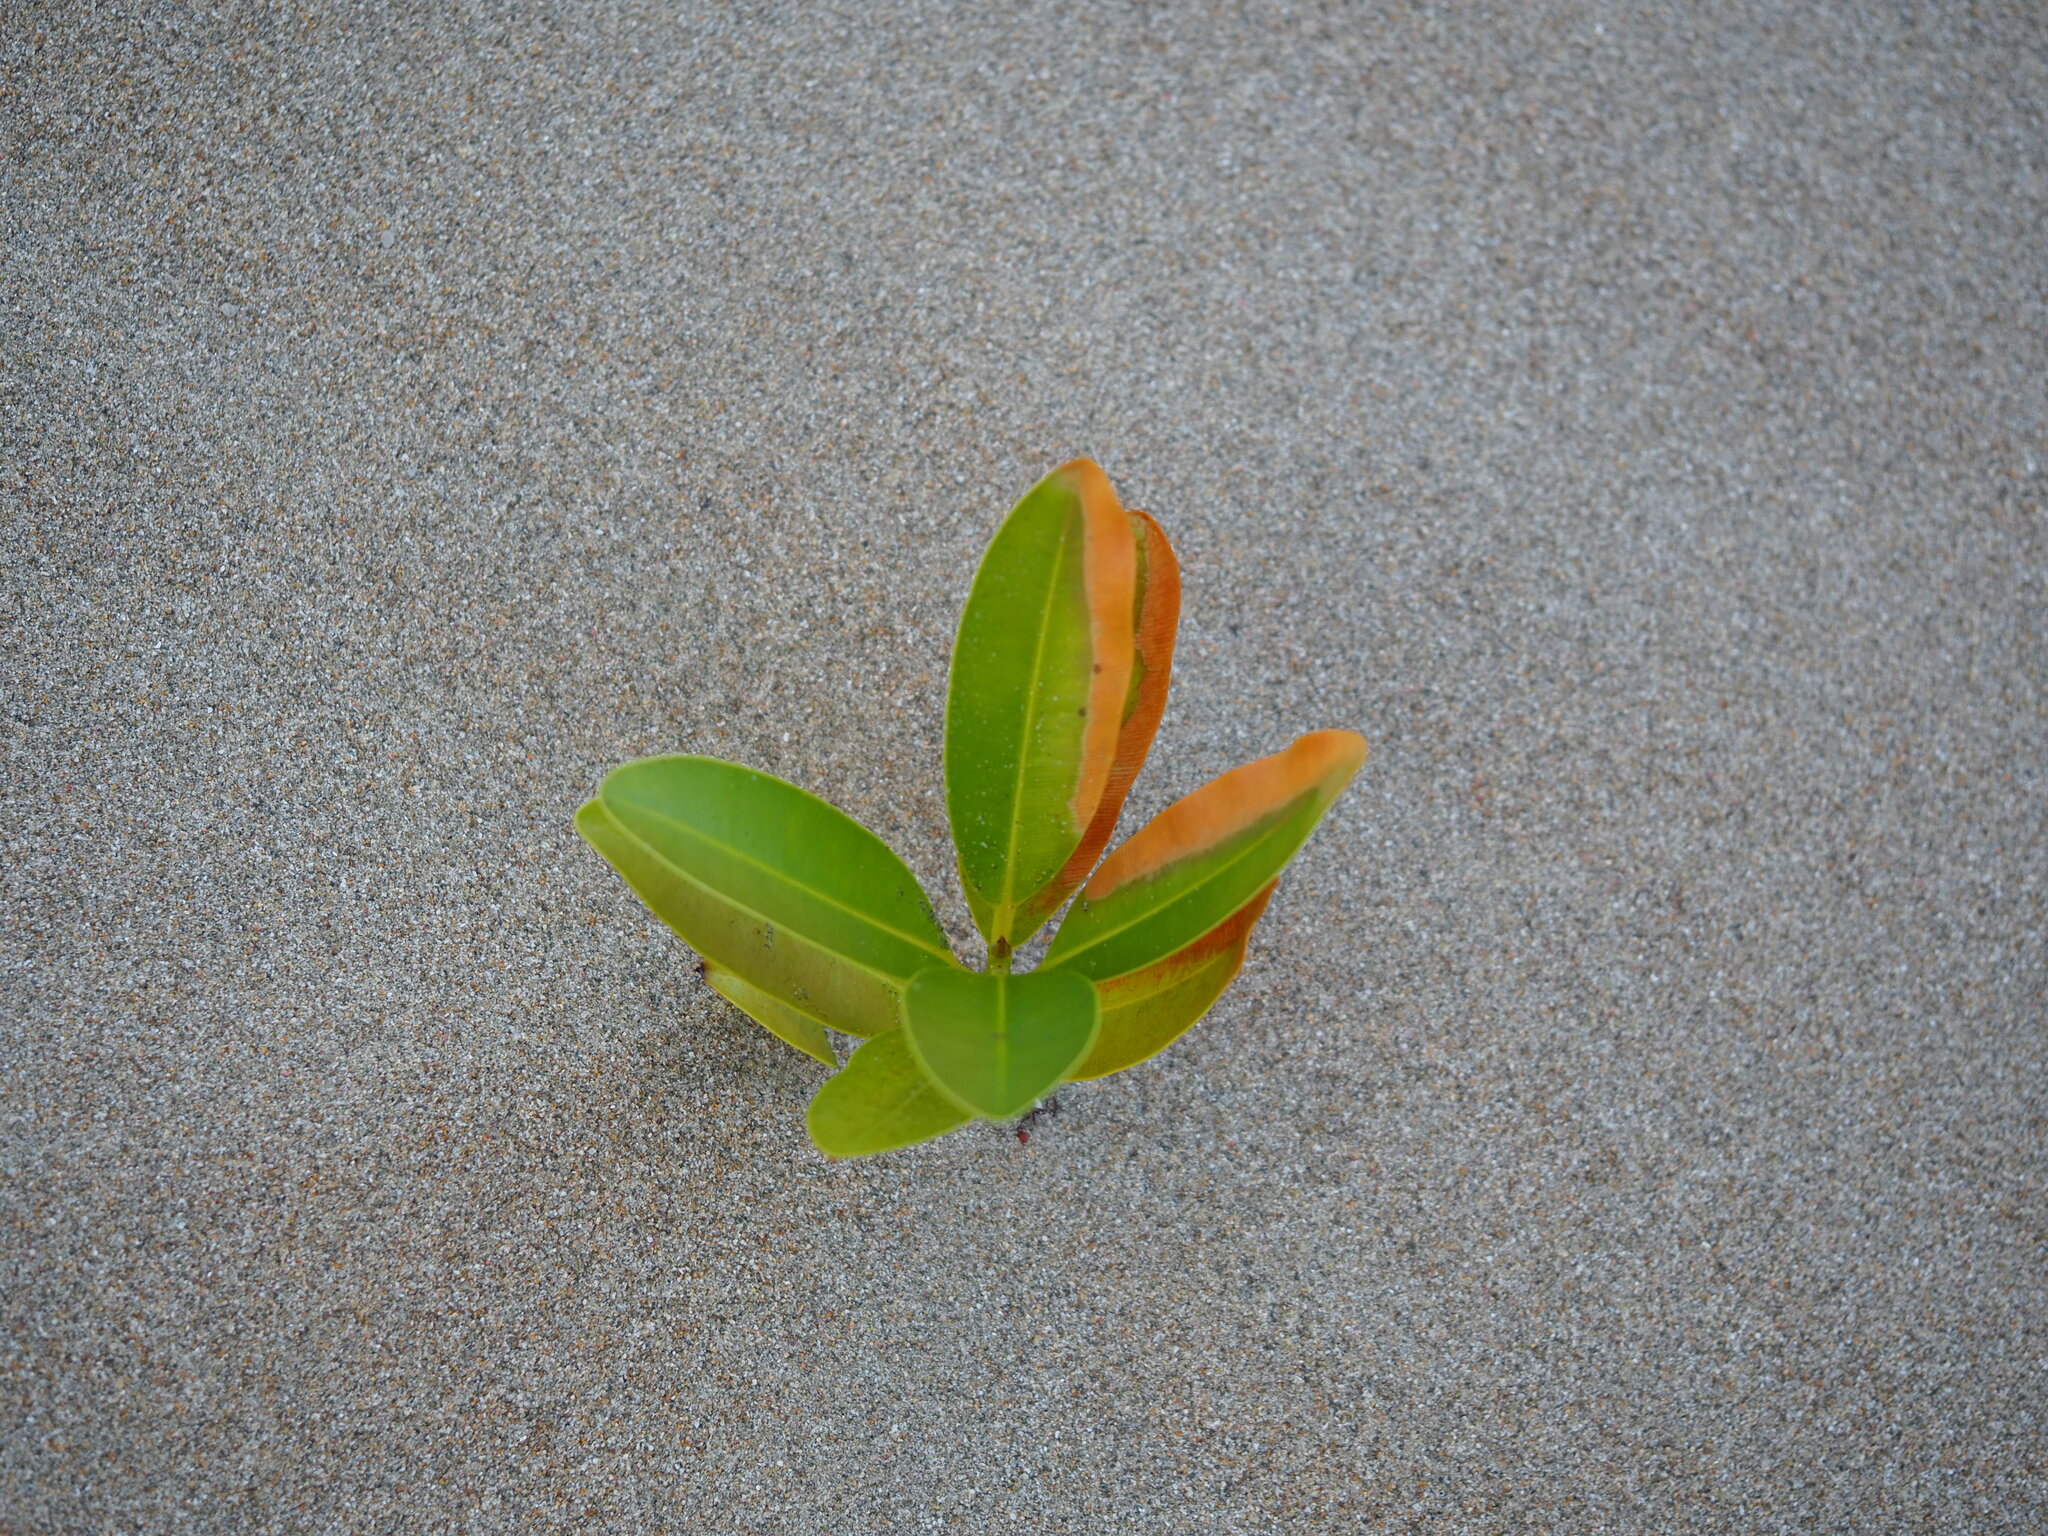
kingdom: Plantae
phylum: Tracheophyta
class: Magnoliopsida
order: Malpighiales
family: Calophyllaceae
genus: Calophyllum
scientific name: Calophyllum inophyllum
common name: Alexandrian laurel
